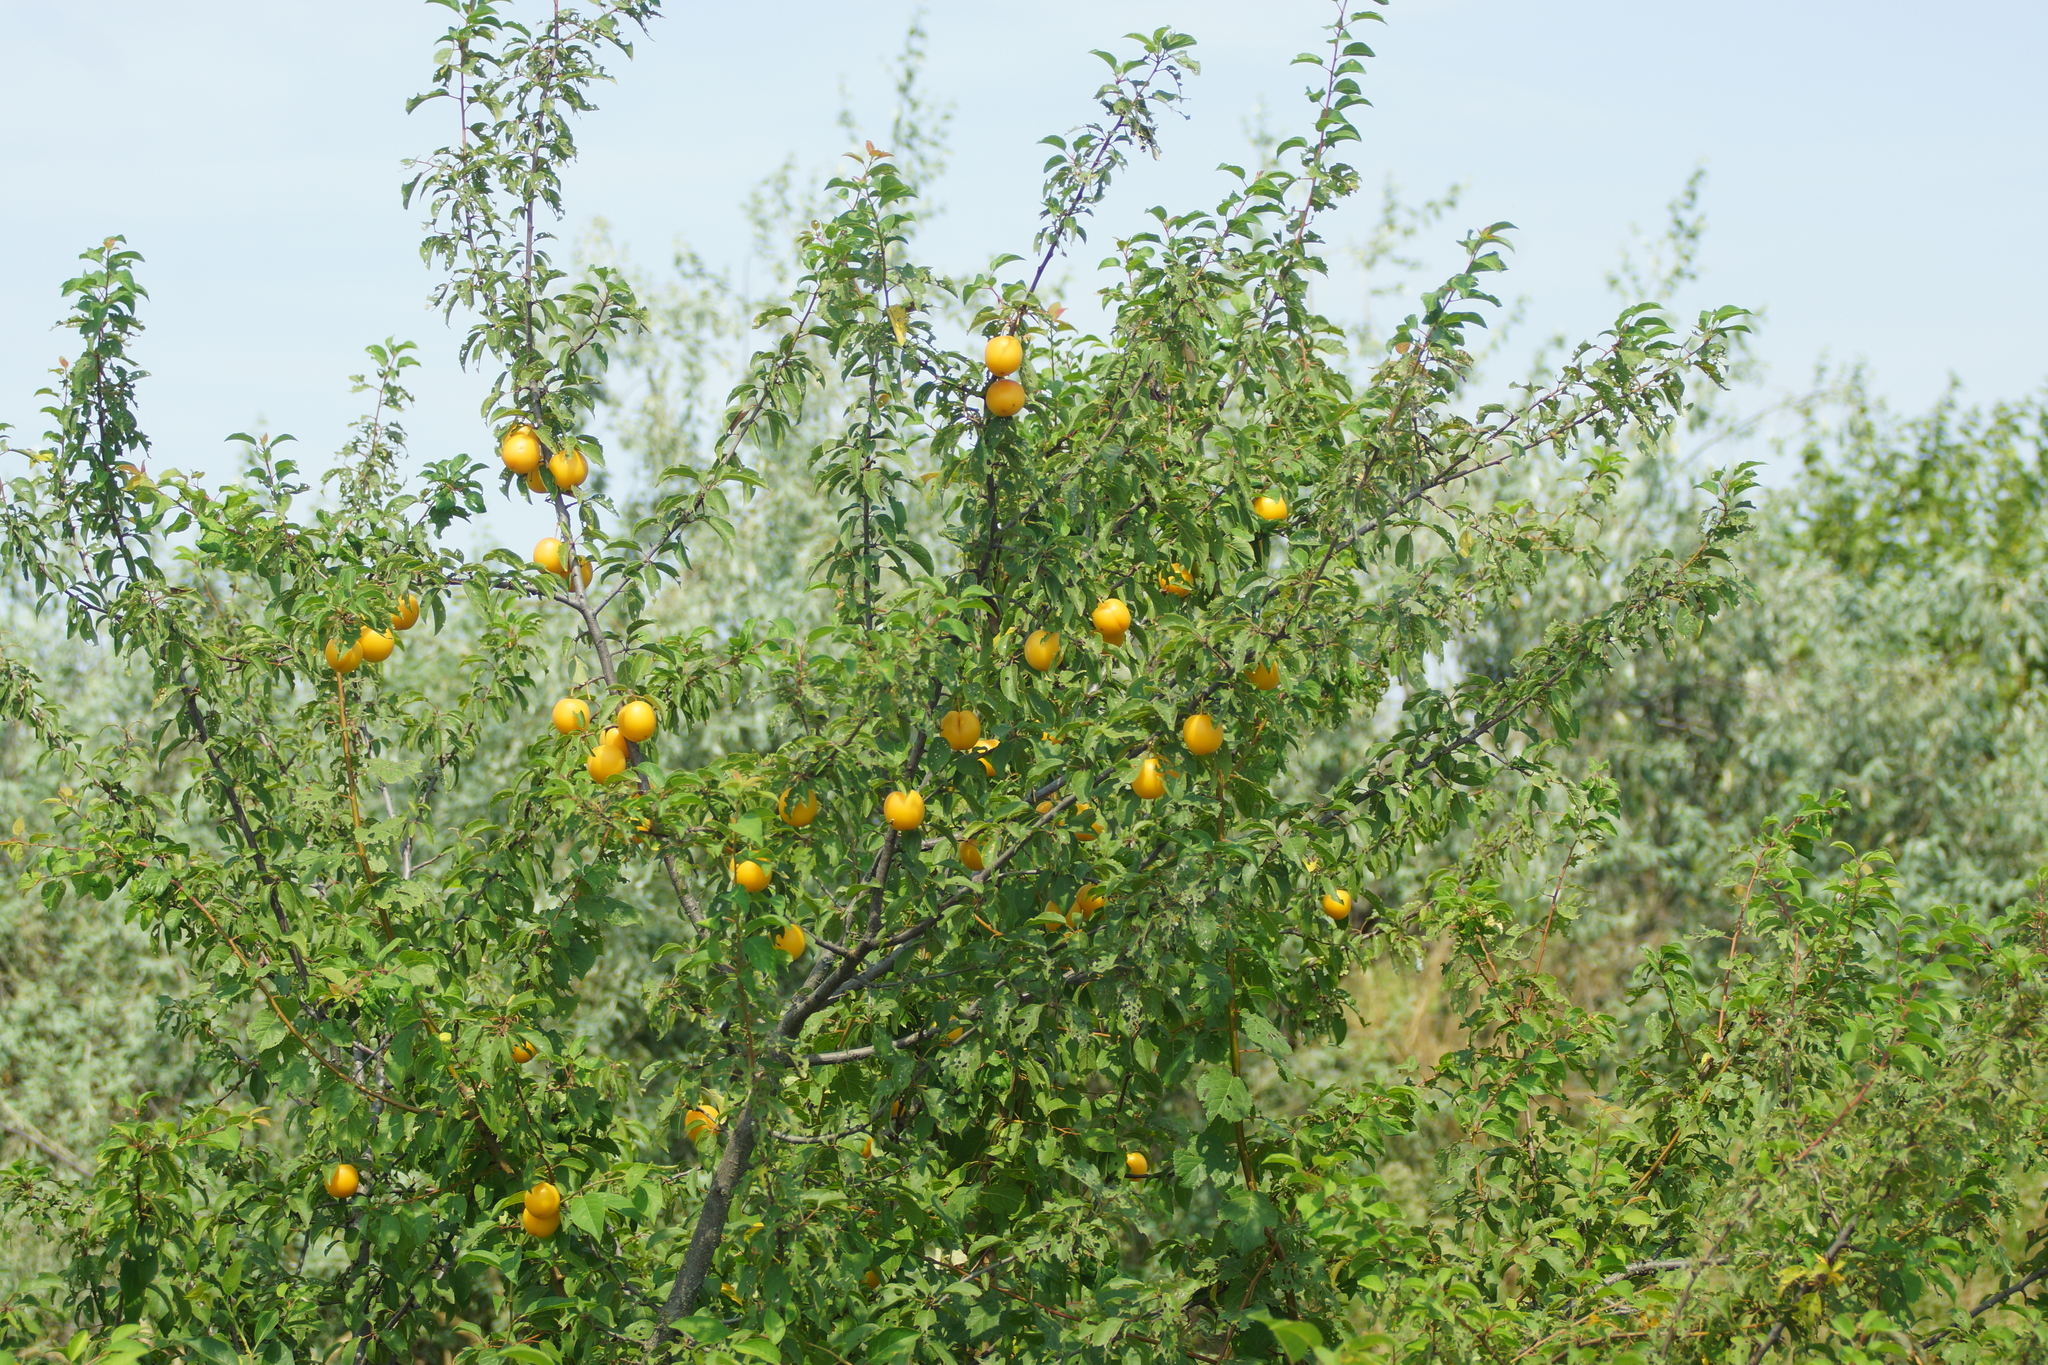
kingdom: Plantae
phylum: Tracheophyta
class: Magnoliopsida
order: Rosales
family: Rosaceae
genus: Prunus
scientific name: Prunus cerasifera
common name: Cherry plum
